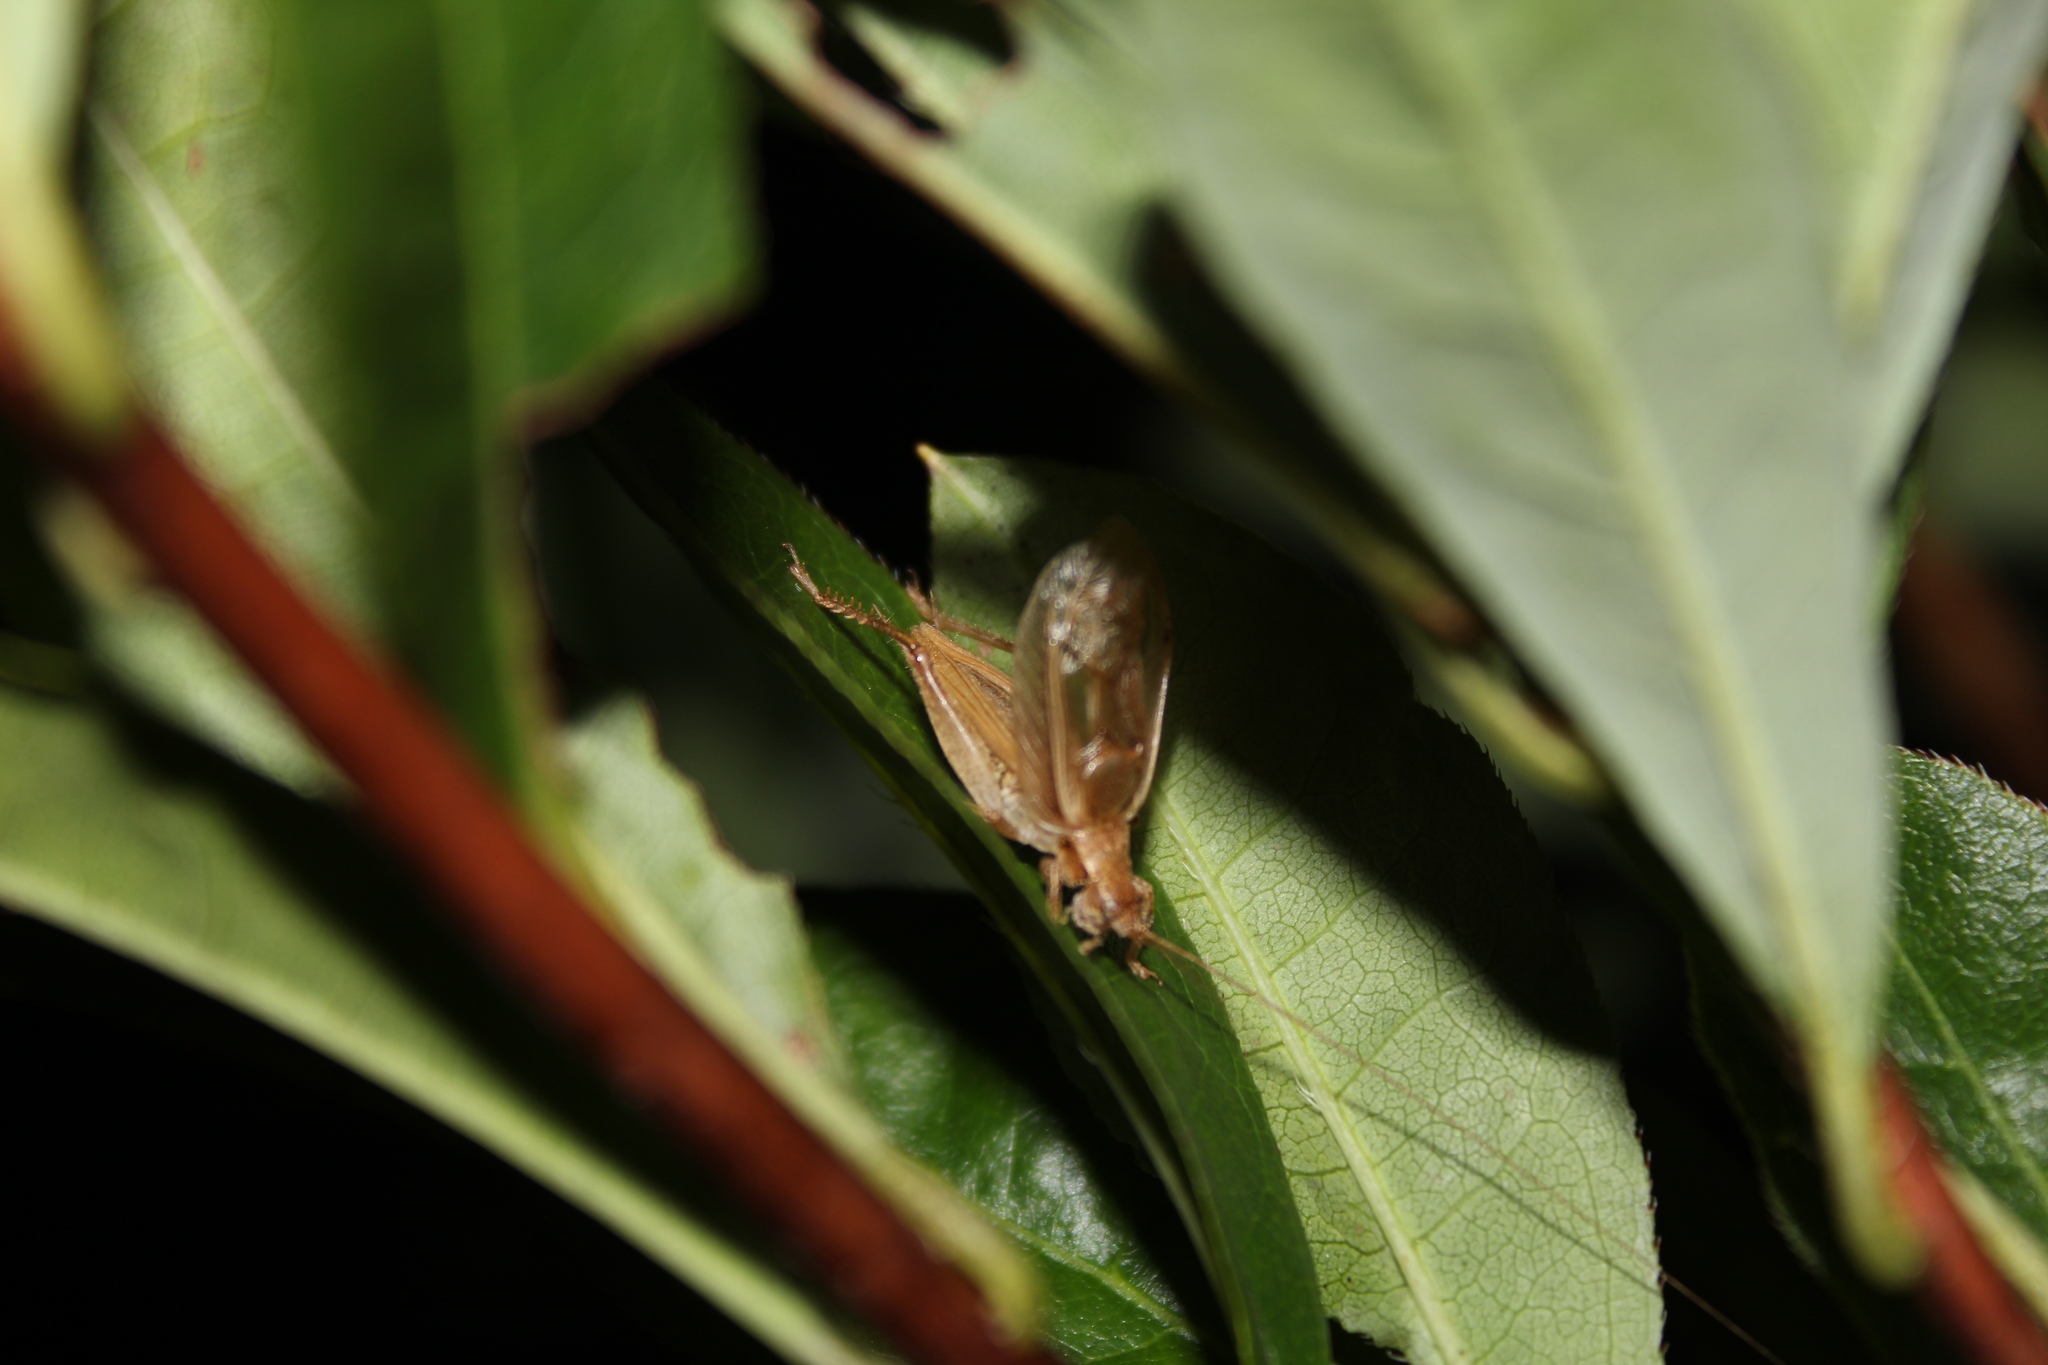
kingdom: Animalia
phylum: Arthropoda
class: Insecta
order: Orthoptera
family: Gryllidae
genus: Hapithus
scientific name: Hapithus saltator
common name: Jumping bush cricket
